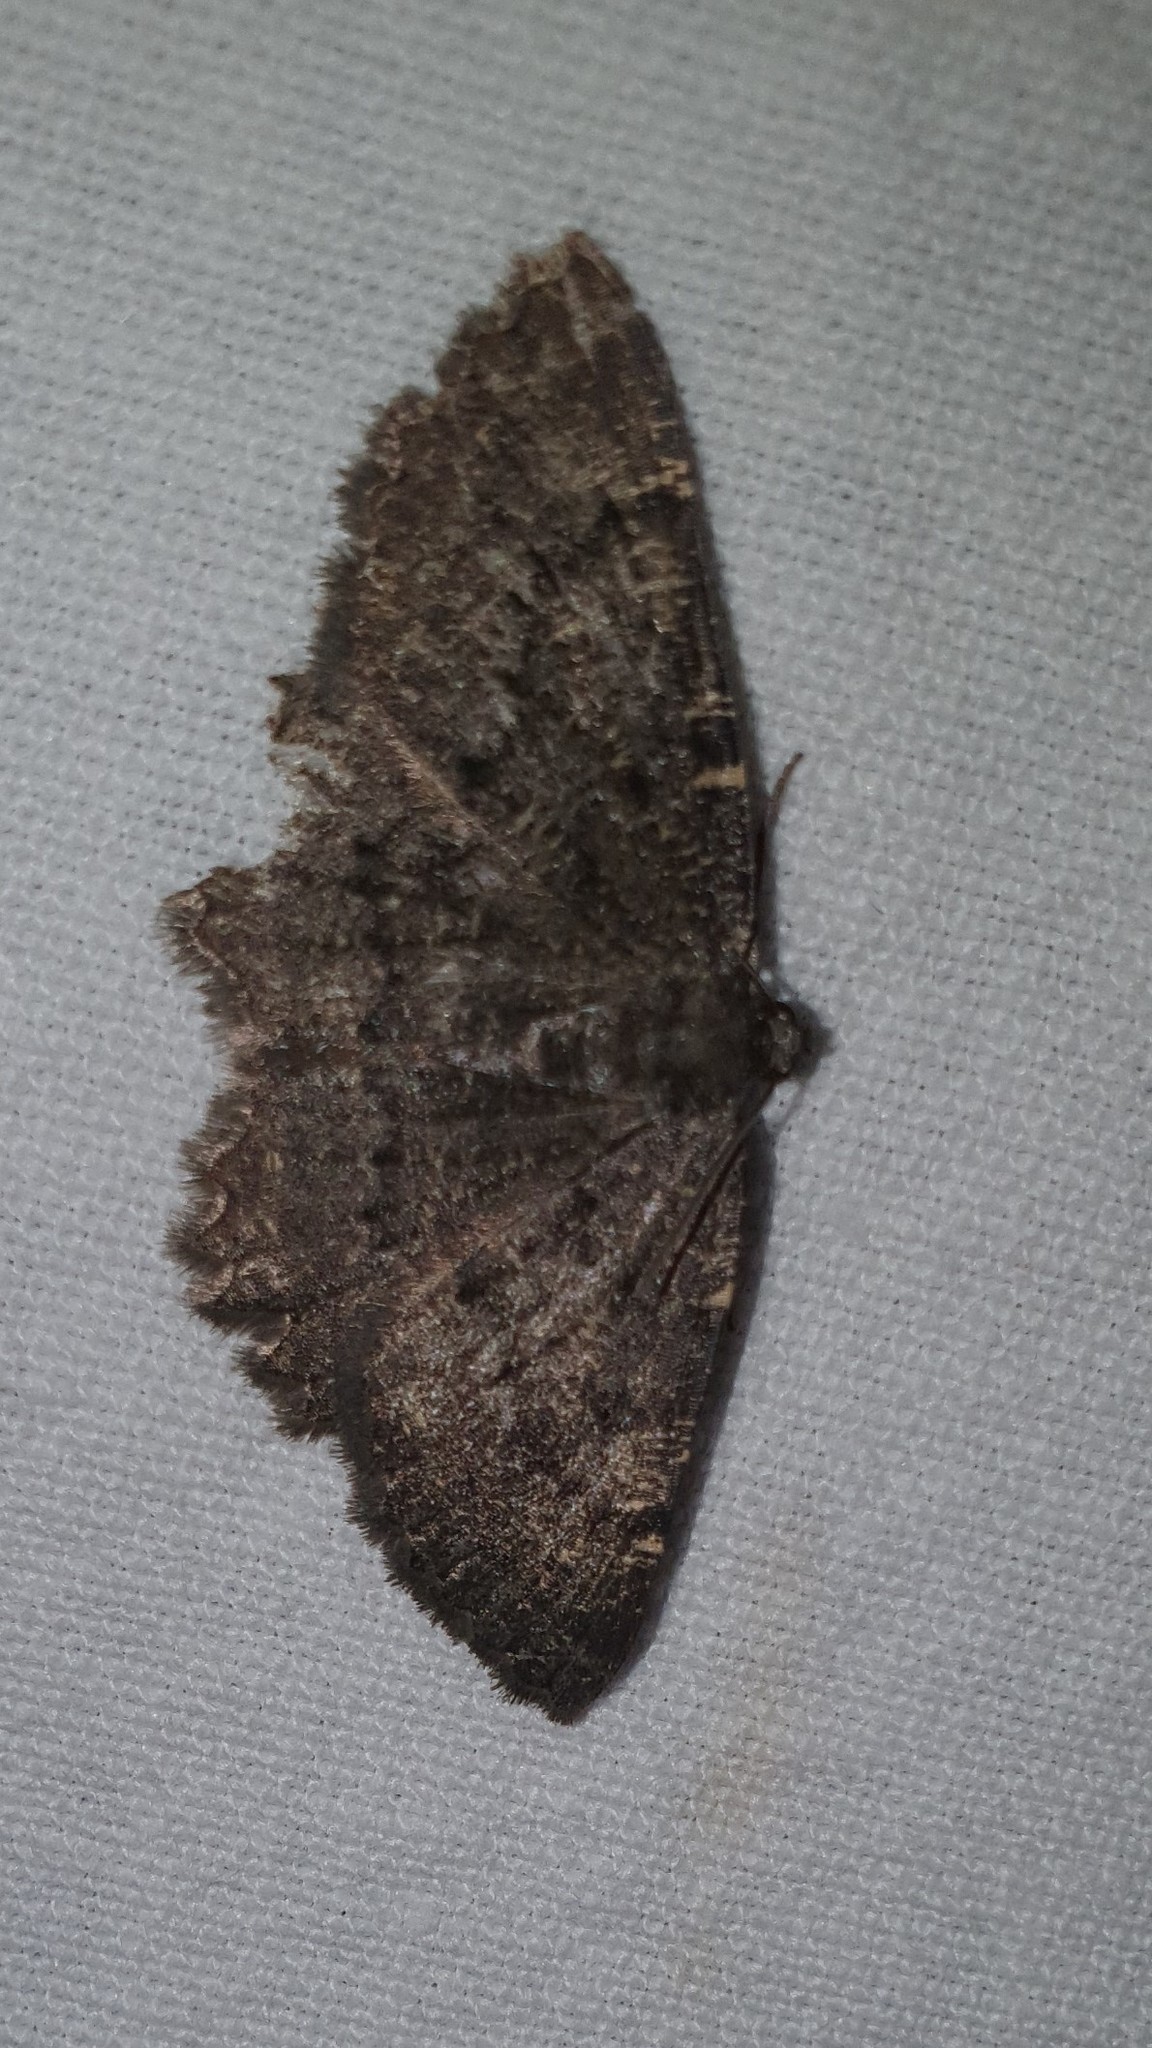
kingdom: Animalia
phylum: Arthropoda
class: Insecta
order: Lepidoptera
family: Geometridae
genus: Charissa
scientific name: Charissa obscurata
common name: Annulet
